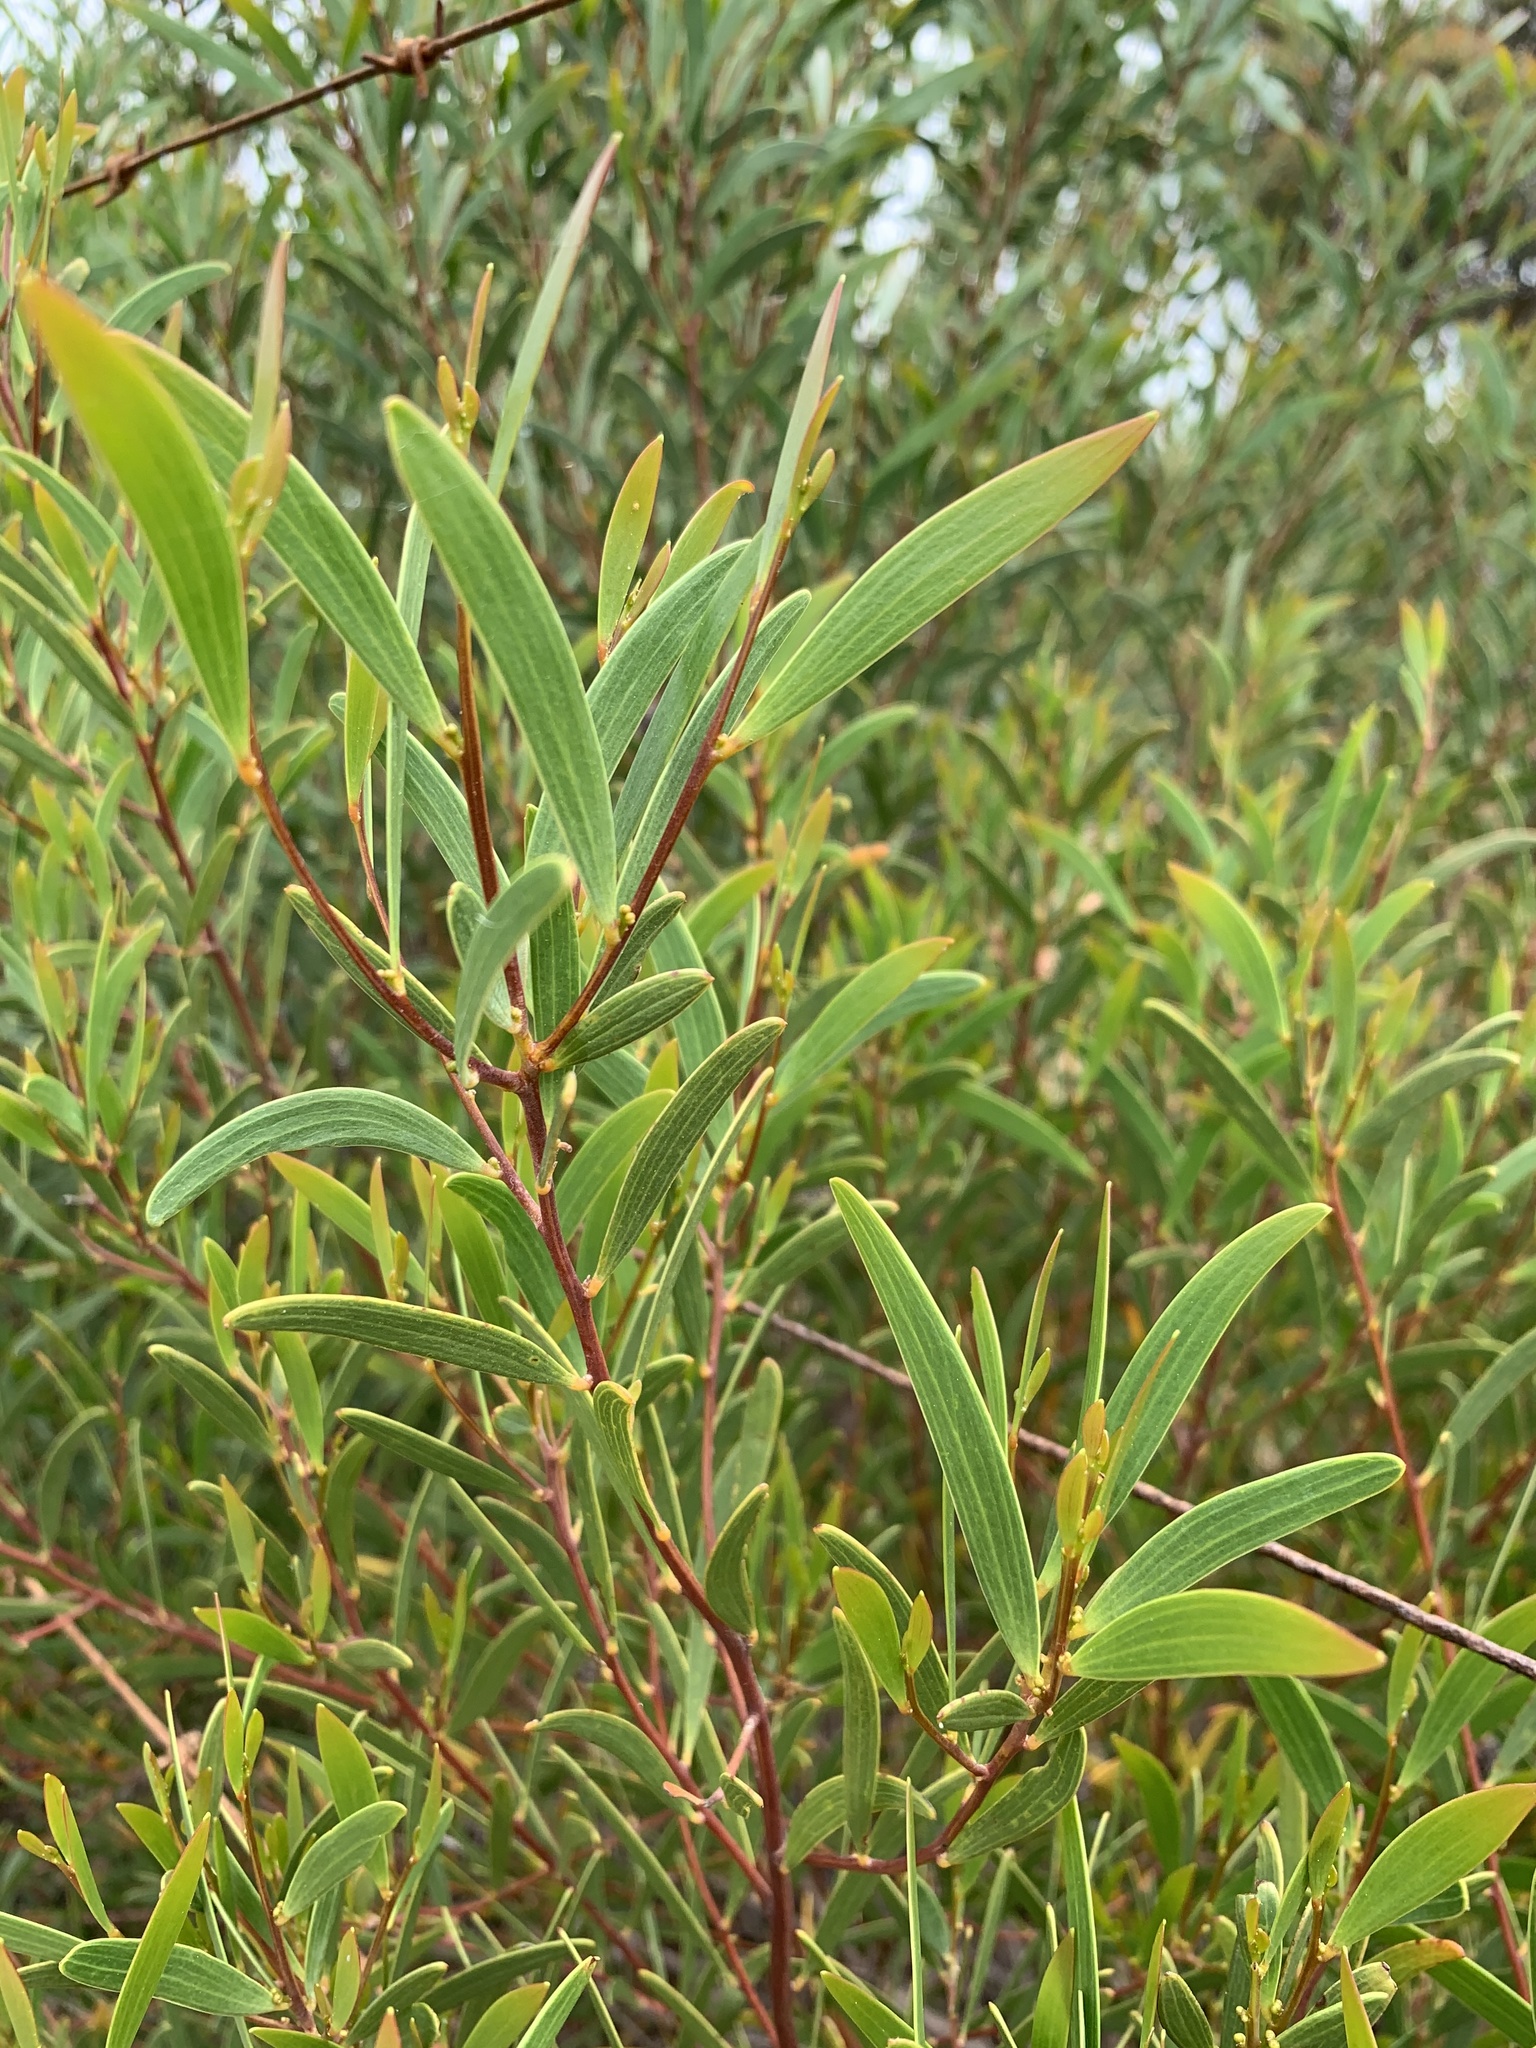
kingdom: Plantae
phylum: Tracheophyta
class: Magnoliopsida
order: Fabales
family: Fabaceae
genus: Acacia
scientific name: Acacia cyclops
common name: Coastal wattle
